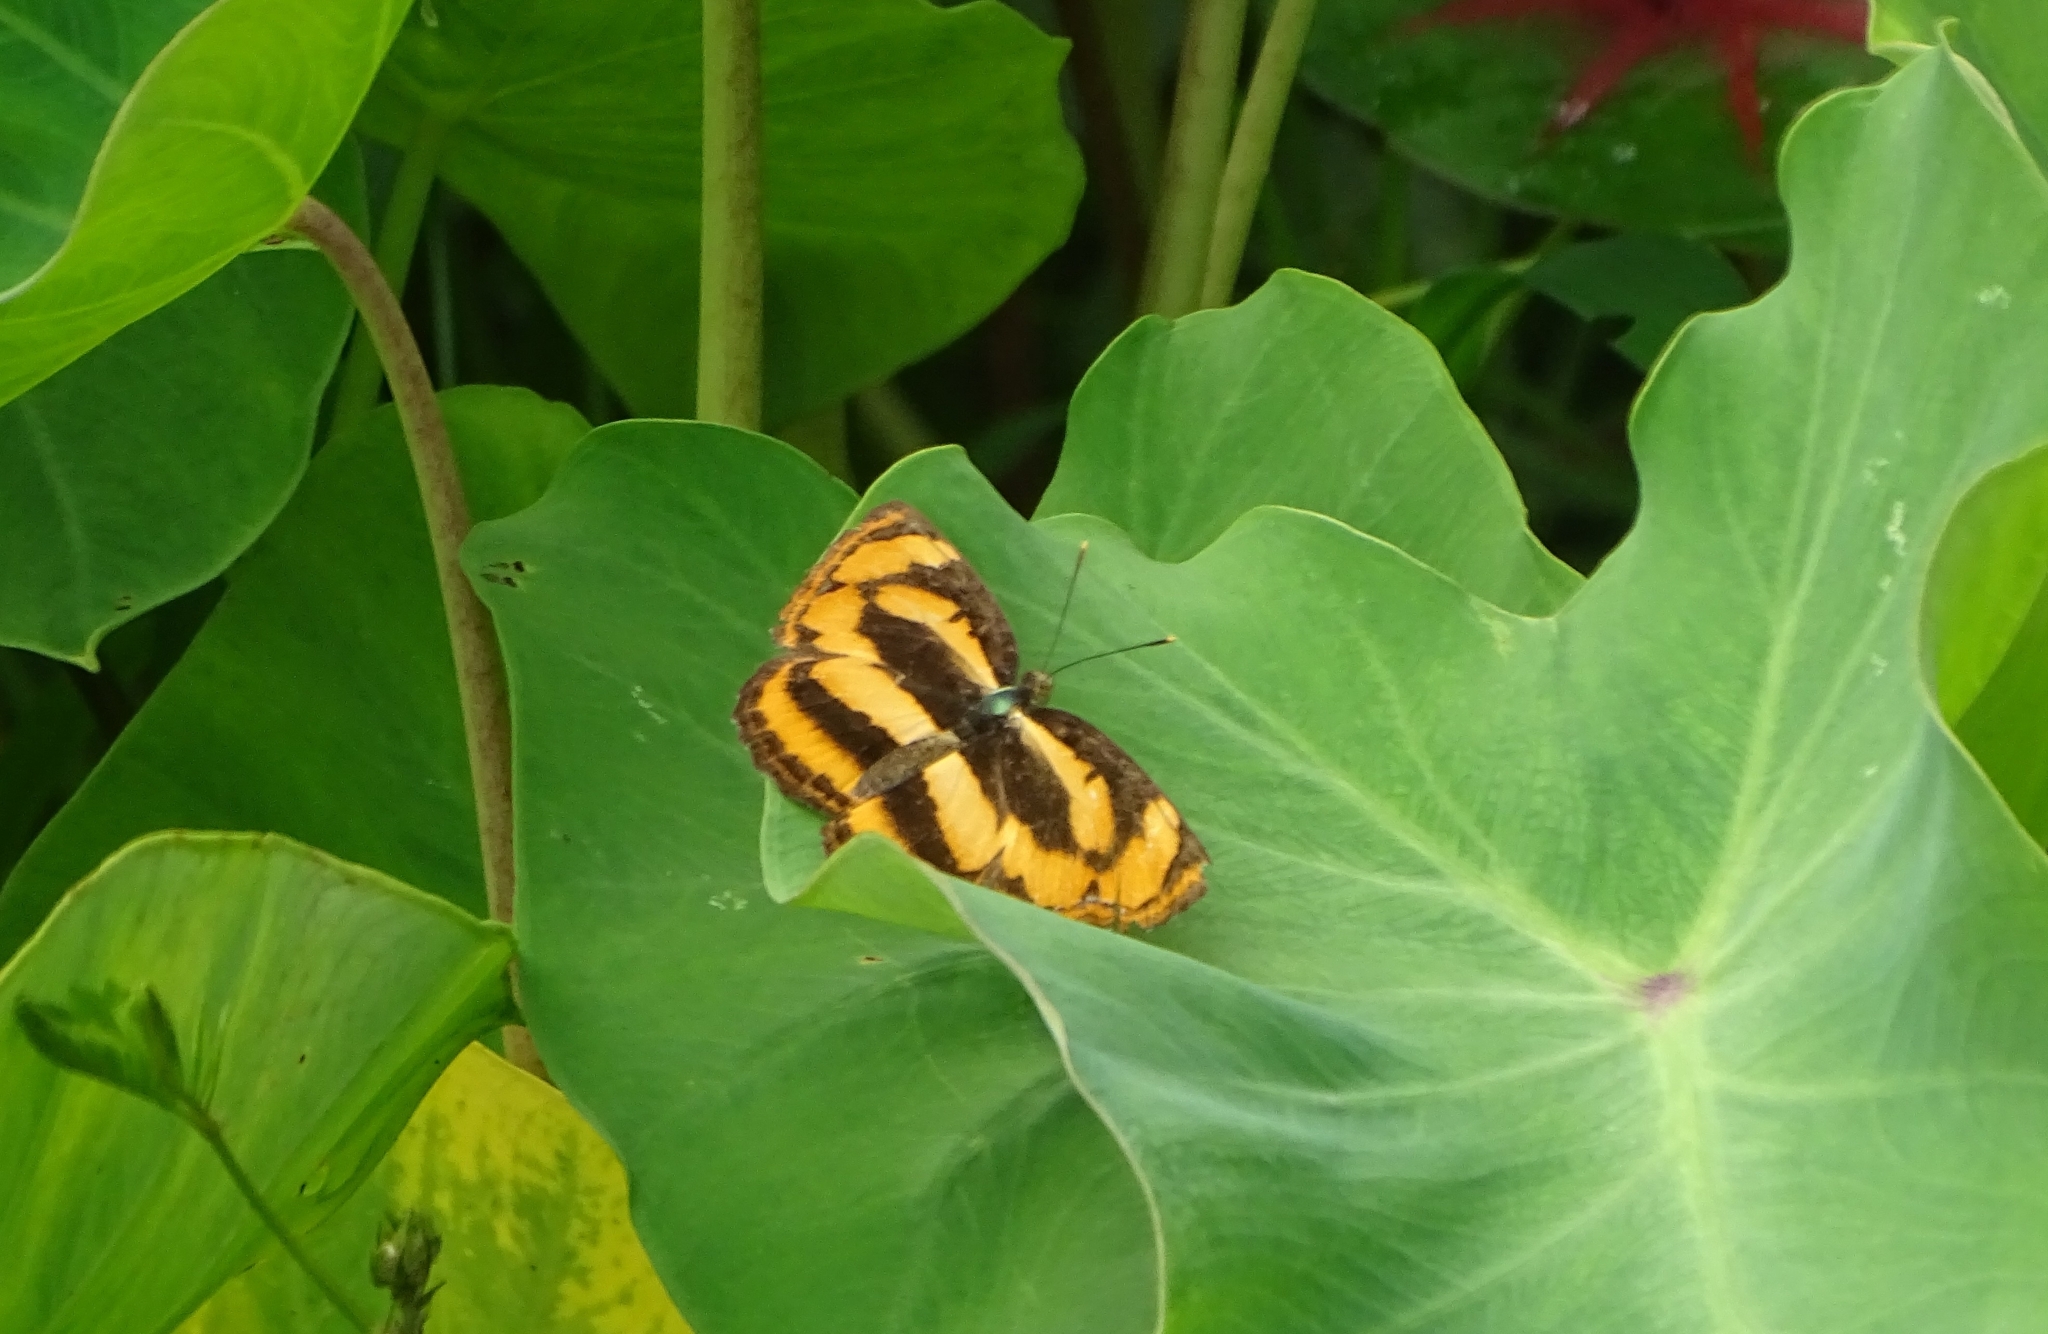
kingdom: Animalia
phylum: Arthropoda
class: Insecta
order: Lepidoptera
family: Nymphalidae
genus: Pantoporia
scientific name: Pantoporia hordonia
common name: Common lascar
